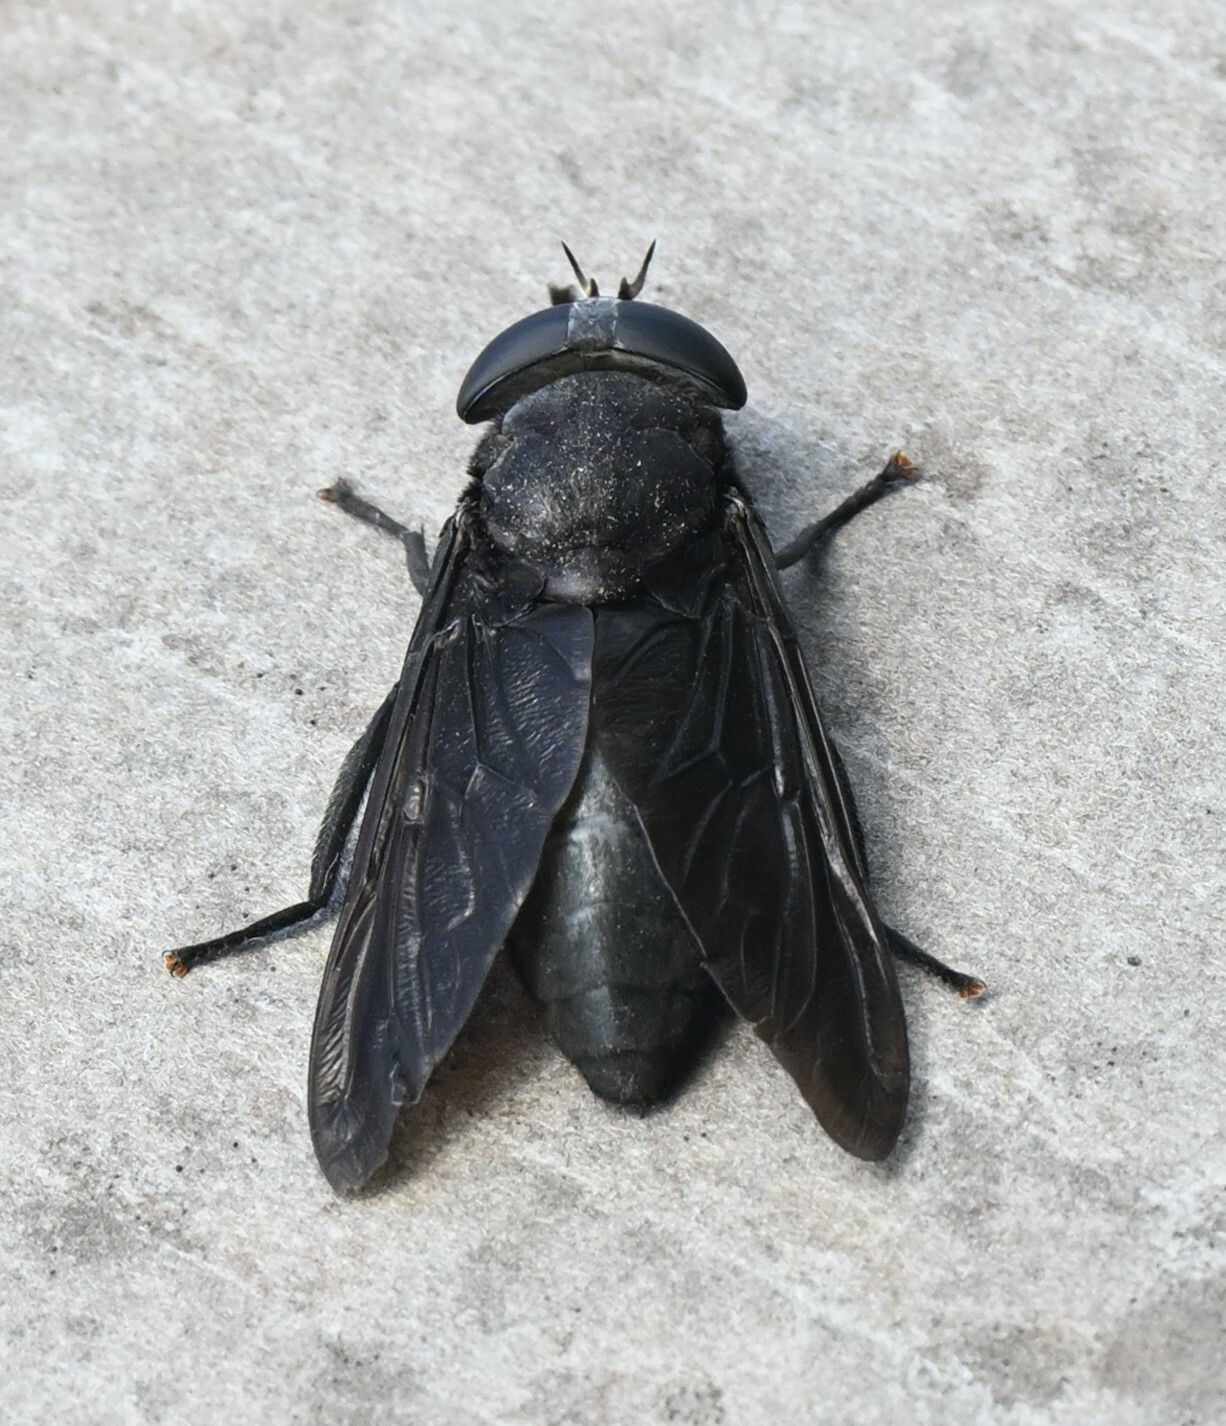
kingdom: Animalia
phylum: Arthropoda
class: Insecta
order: Diptera
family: Tabanidae
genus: Tabanus
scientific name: Tabanus atratus
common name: Black horse fly
